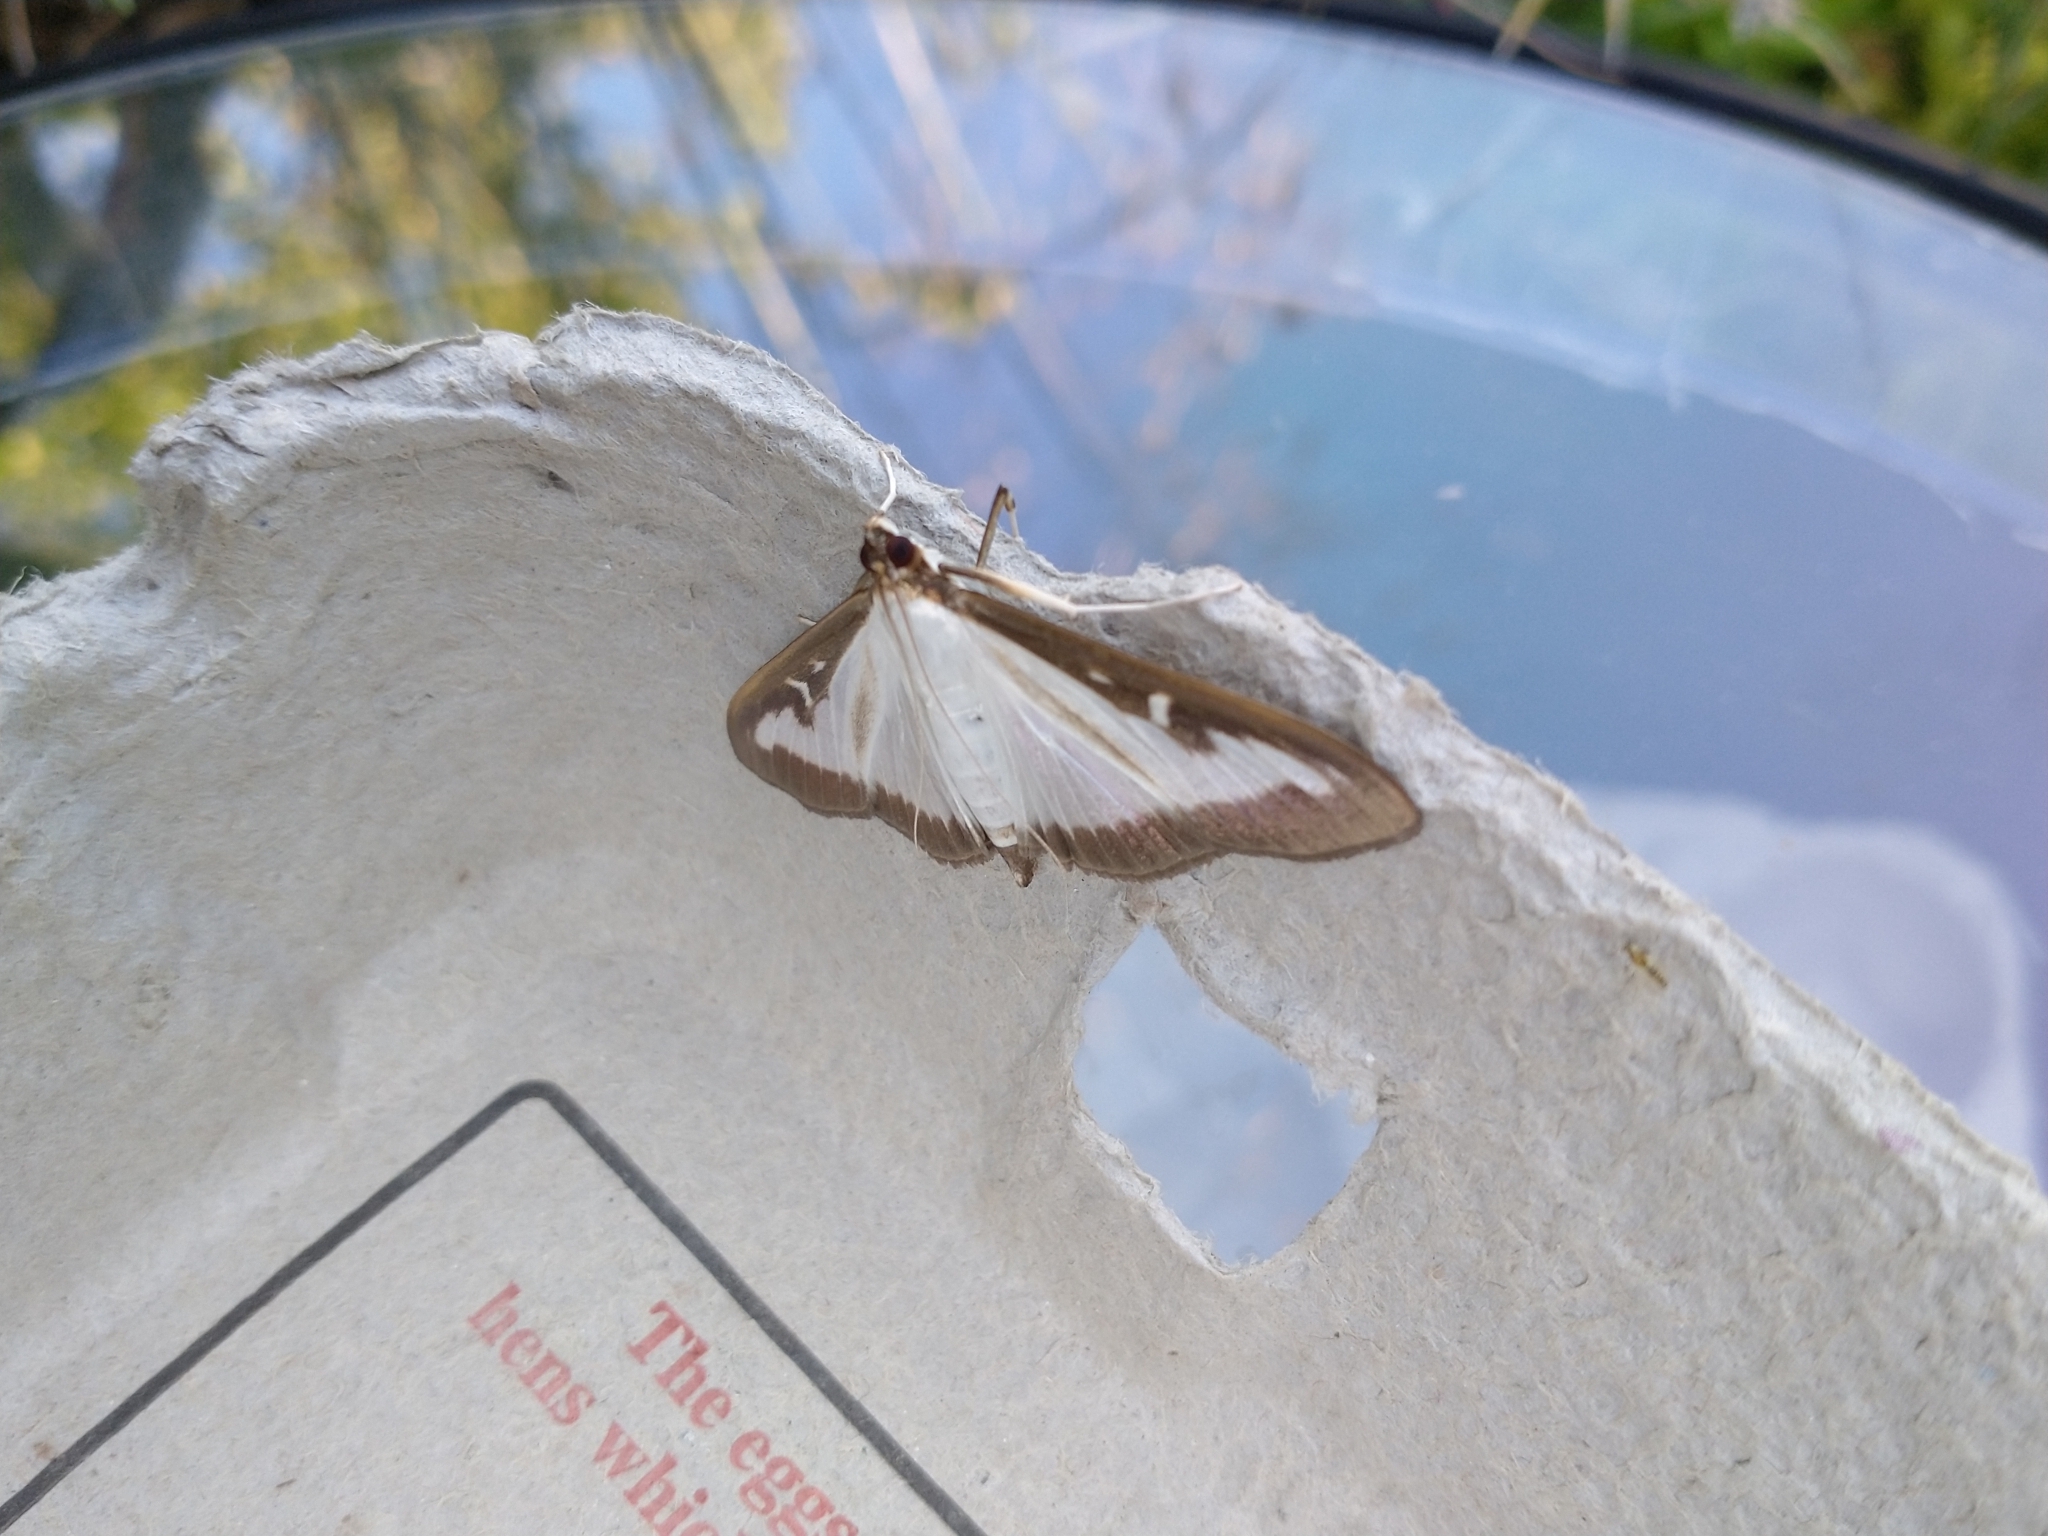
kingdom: Animalia
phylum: Arthropoda
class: Insecta
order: Lepidoptera
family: Crambidae
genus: Cydalima
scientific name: Cydalima perspectalis
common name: Box tree moth
